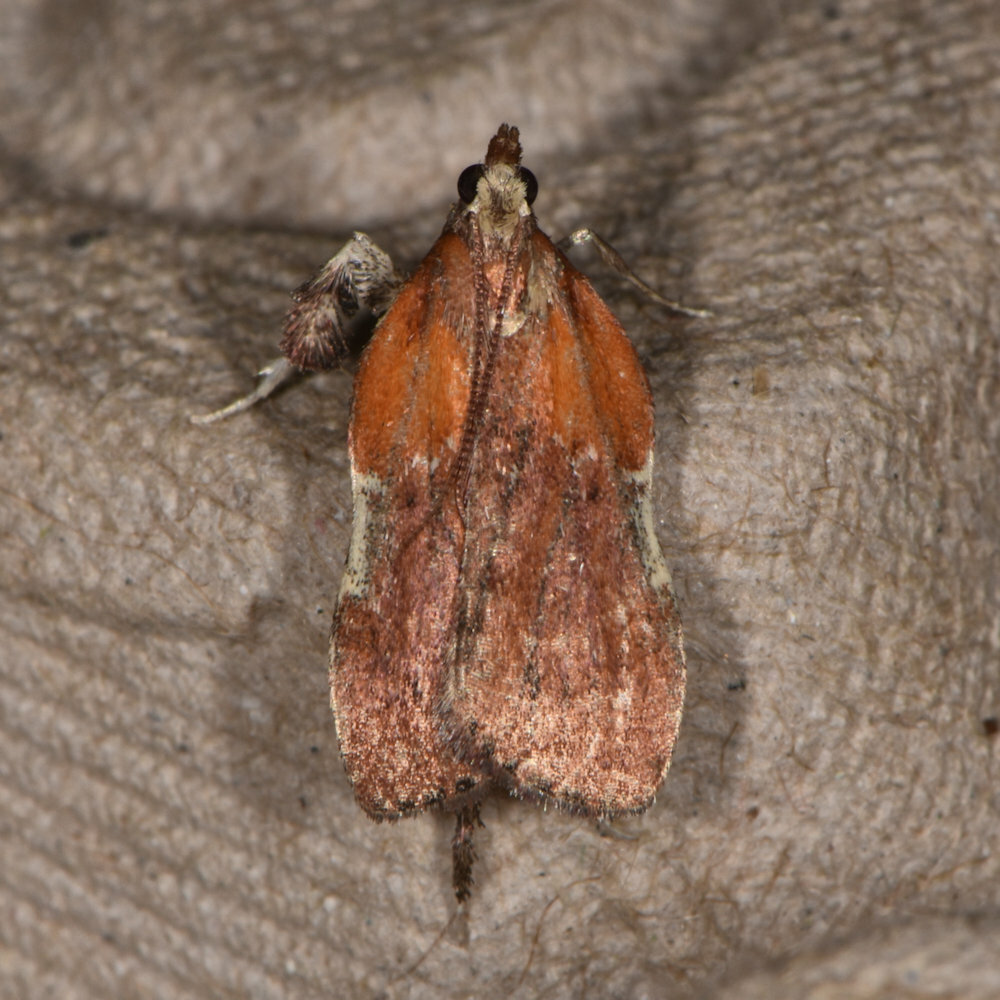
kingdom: Animalia
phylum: Arthropoda
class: Insecta
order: Lepidoptera
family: Pyralidae
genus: Galasa
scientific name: Galasa nigrinodis
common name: Boxwood leaftier moth
